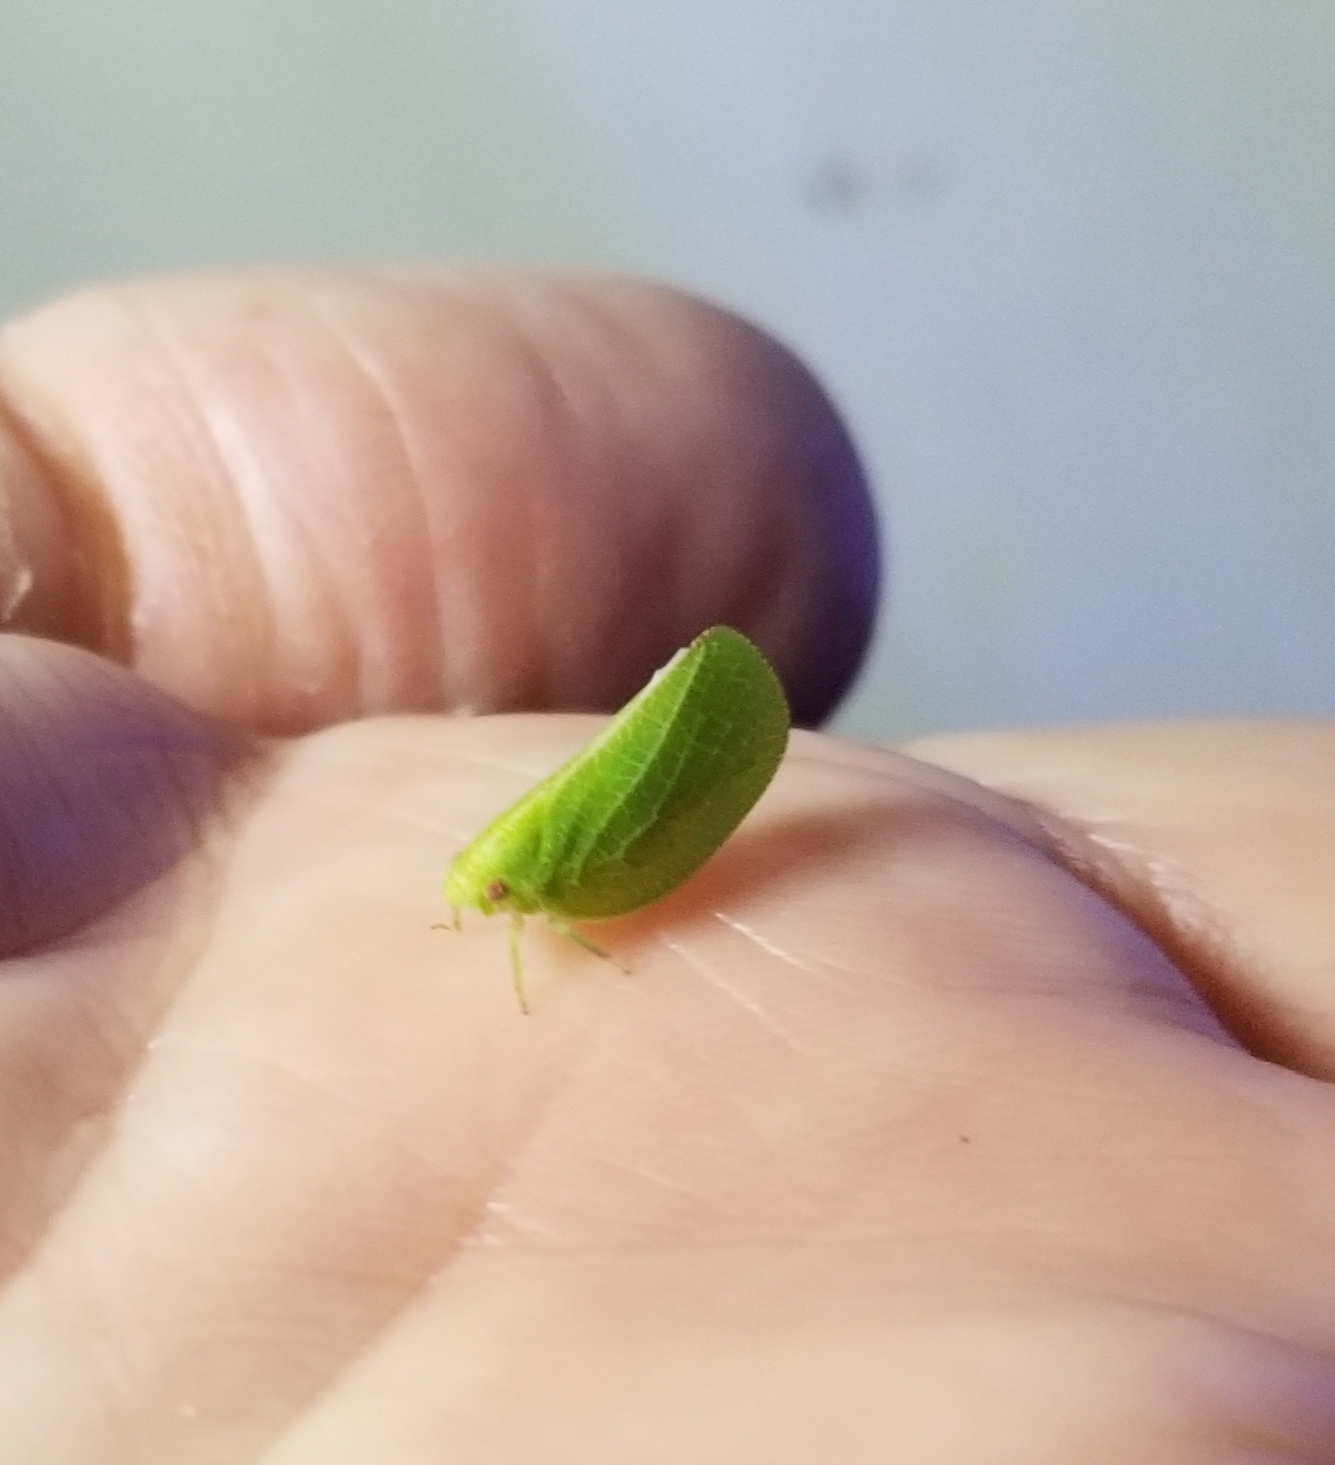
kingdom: Animalia
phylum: Arthropoda
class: Insecta
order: Hemiptera
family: Acanaloniidae
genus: Acanalonia
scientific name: Acanalonia conica
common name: Green cone-headed planthopper
